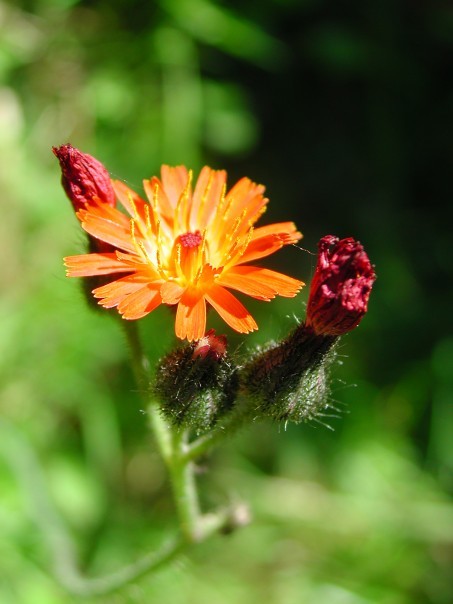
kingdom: Plantae
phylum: Tracheophyta
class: Magnoliopsida
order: Asterales
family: Asteraceae
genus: Pilosella
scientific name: Pilosella aurantiaca
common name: Fox-and-cubs
